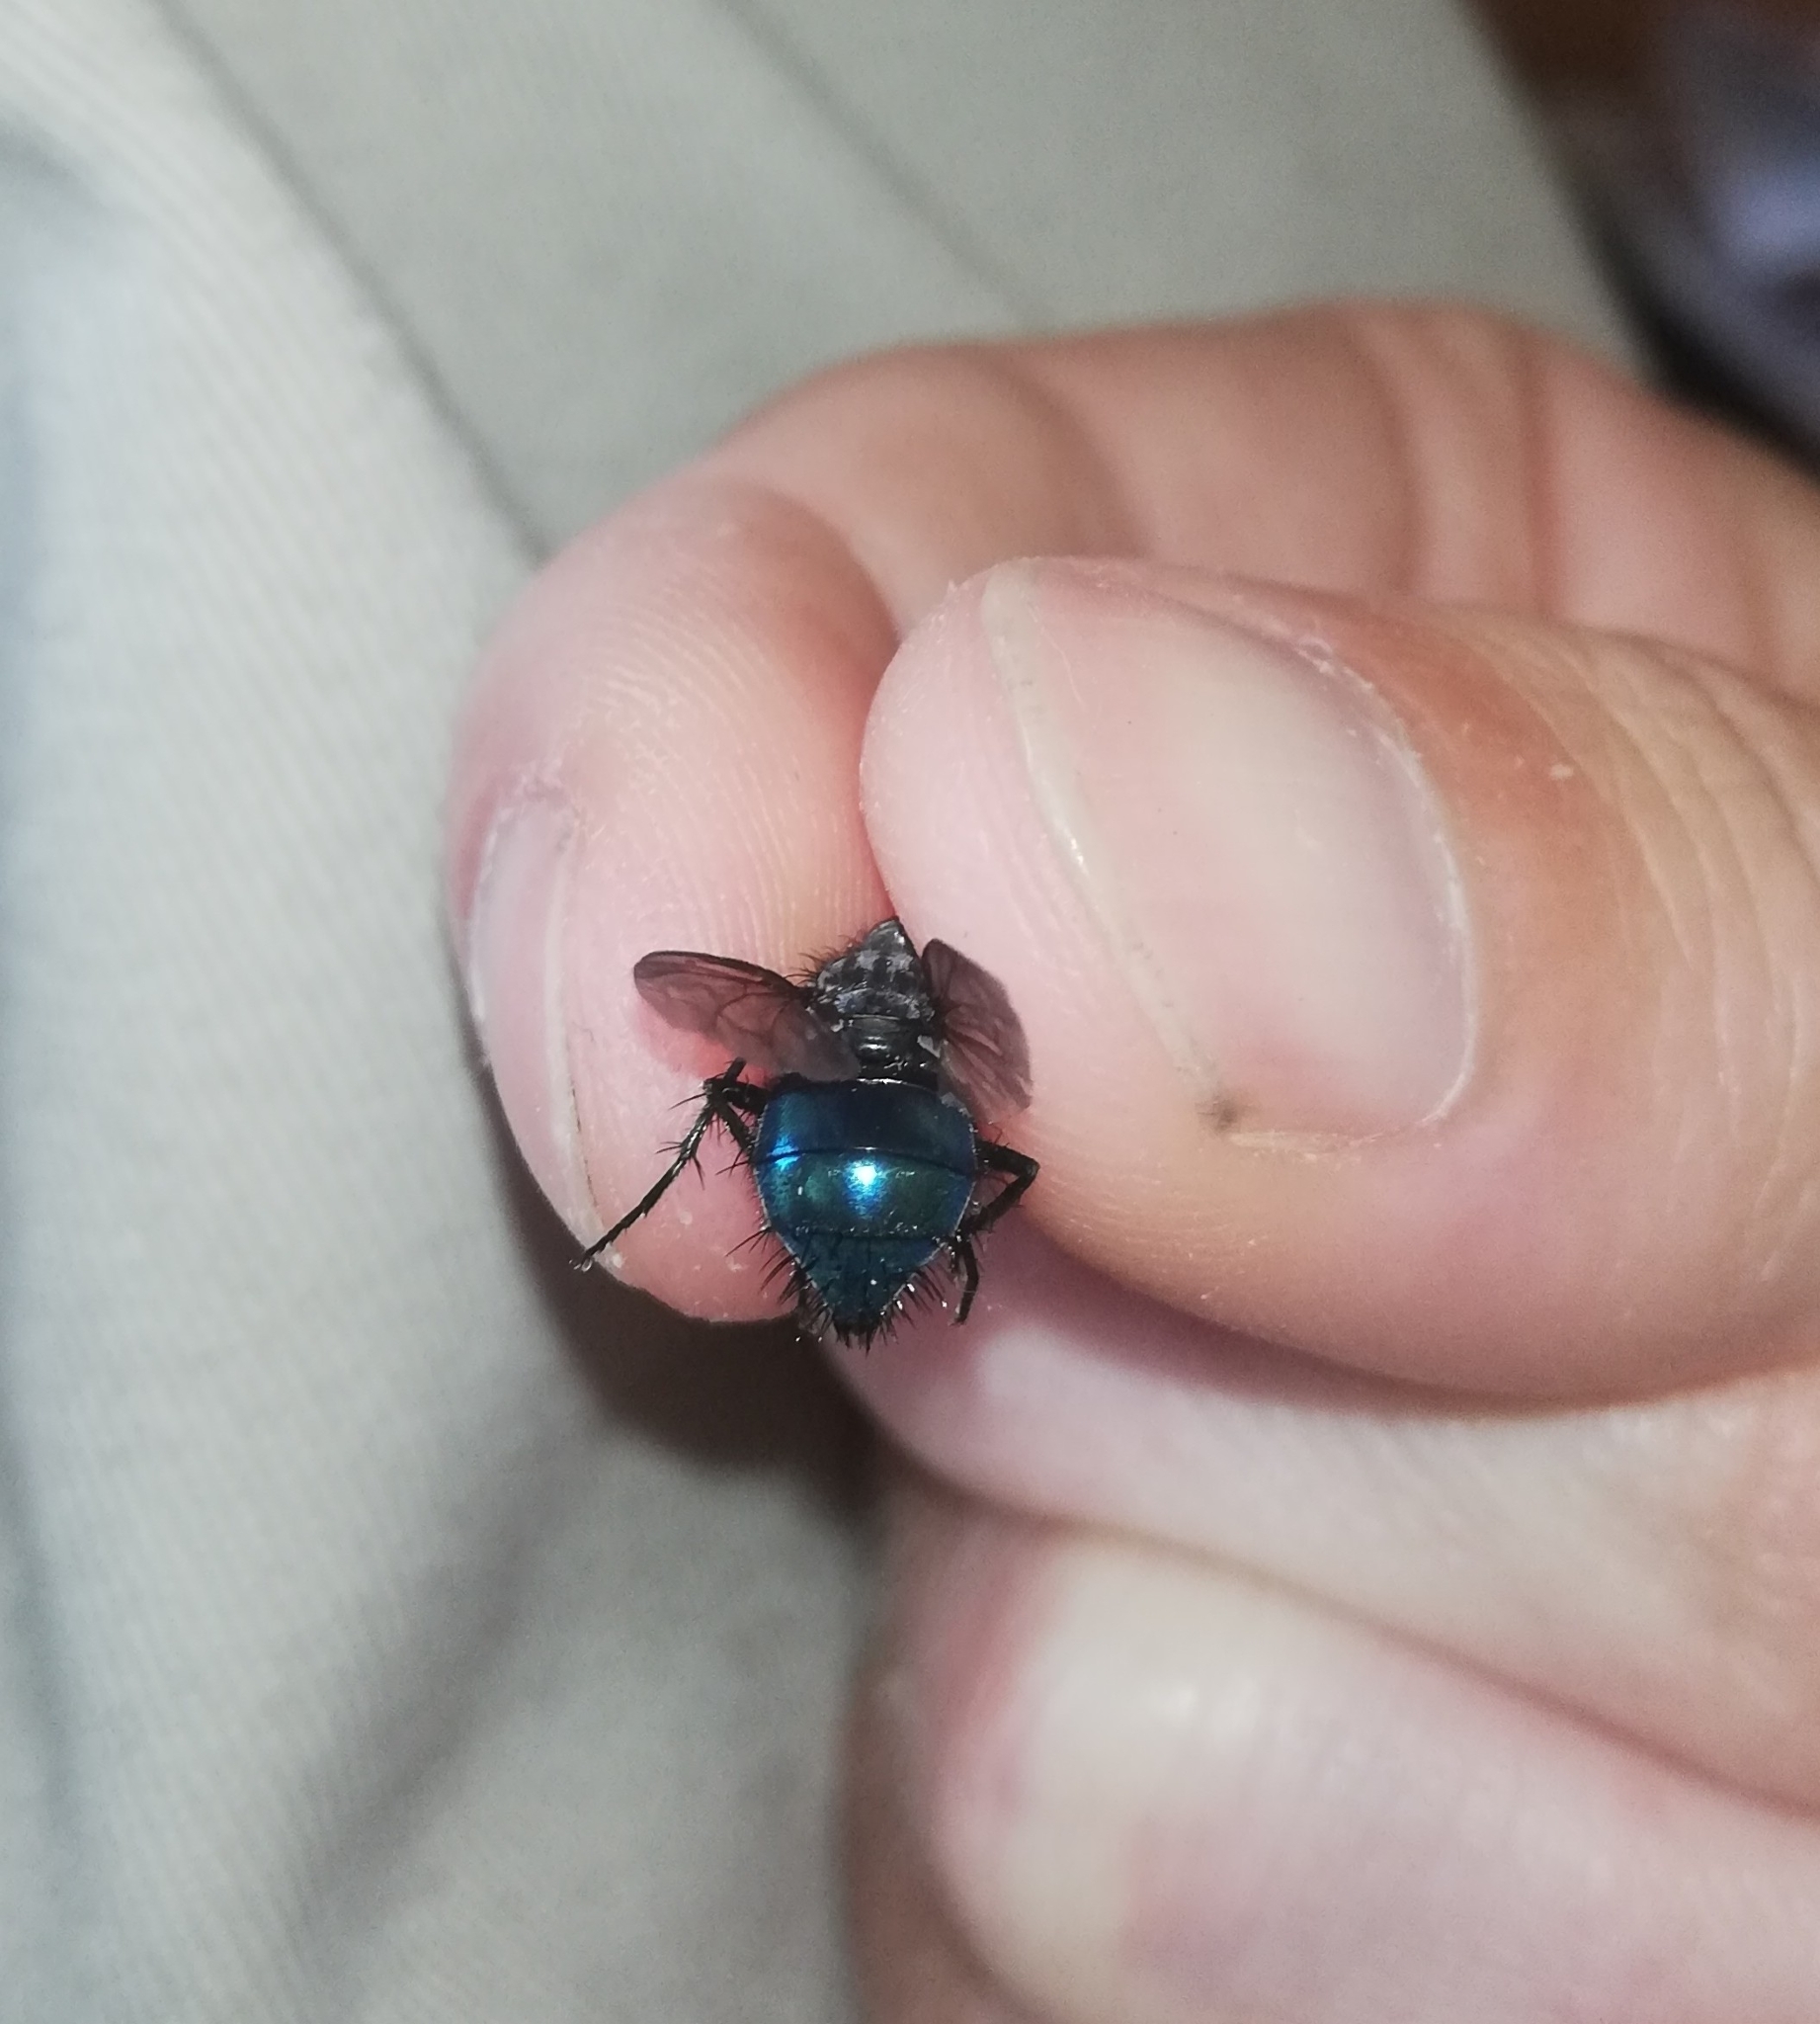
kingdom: Animalia
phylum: Arthropoda
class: Insecta
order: Diptera
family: Calliphoridae
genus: Cynomya
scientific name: Cynomya mortuorum
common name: Bluebottle blow fly
